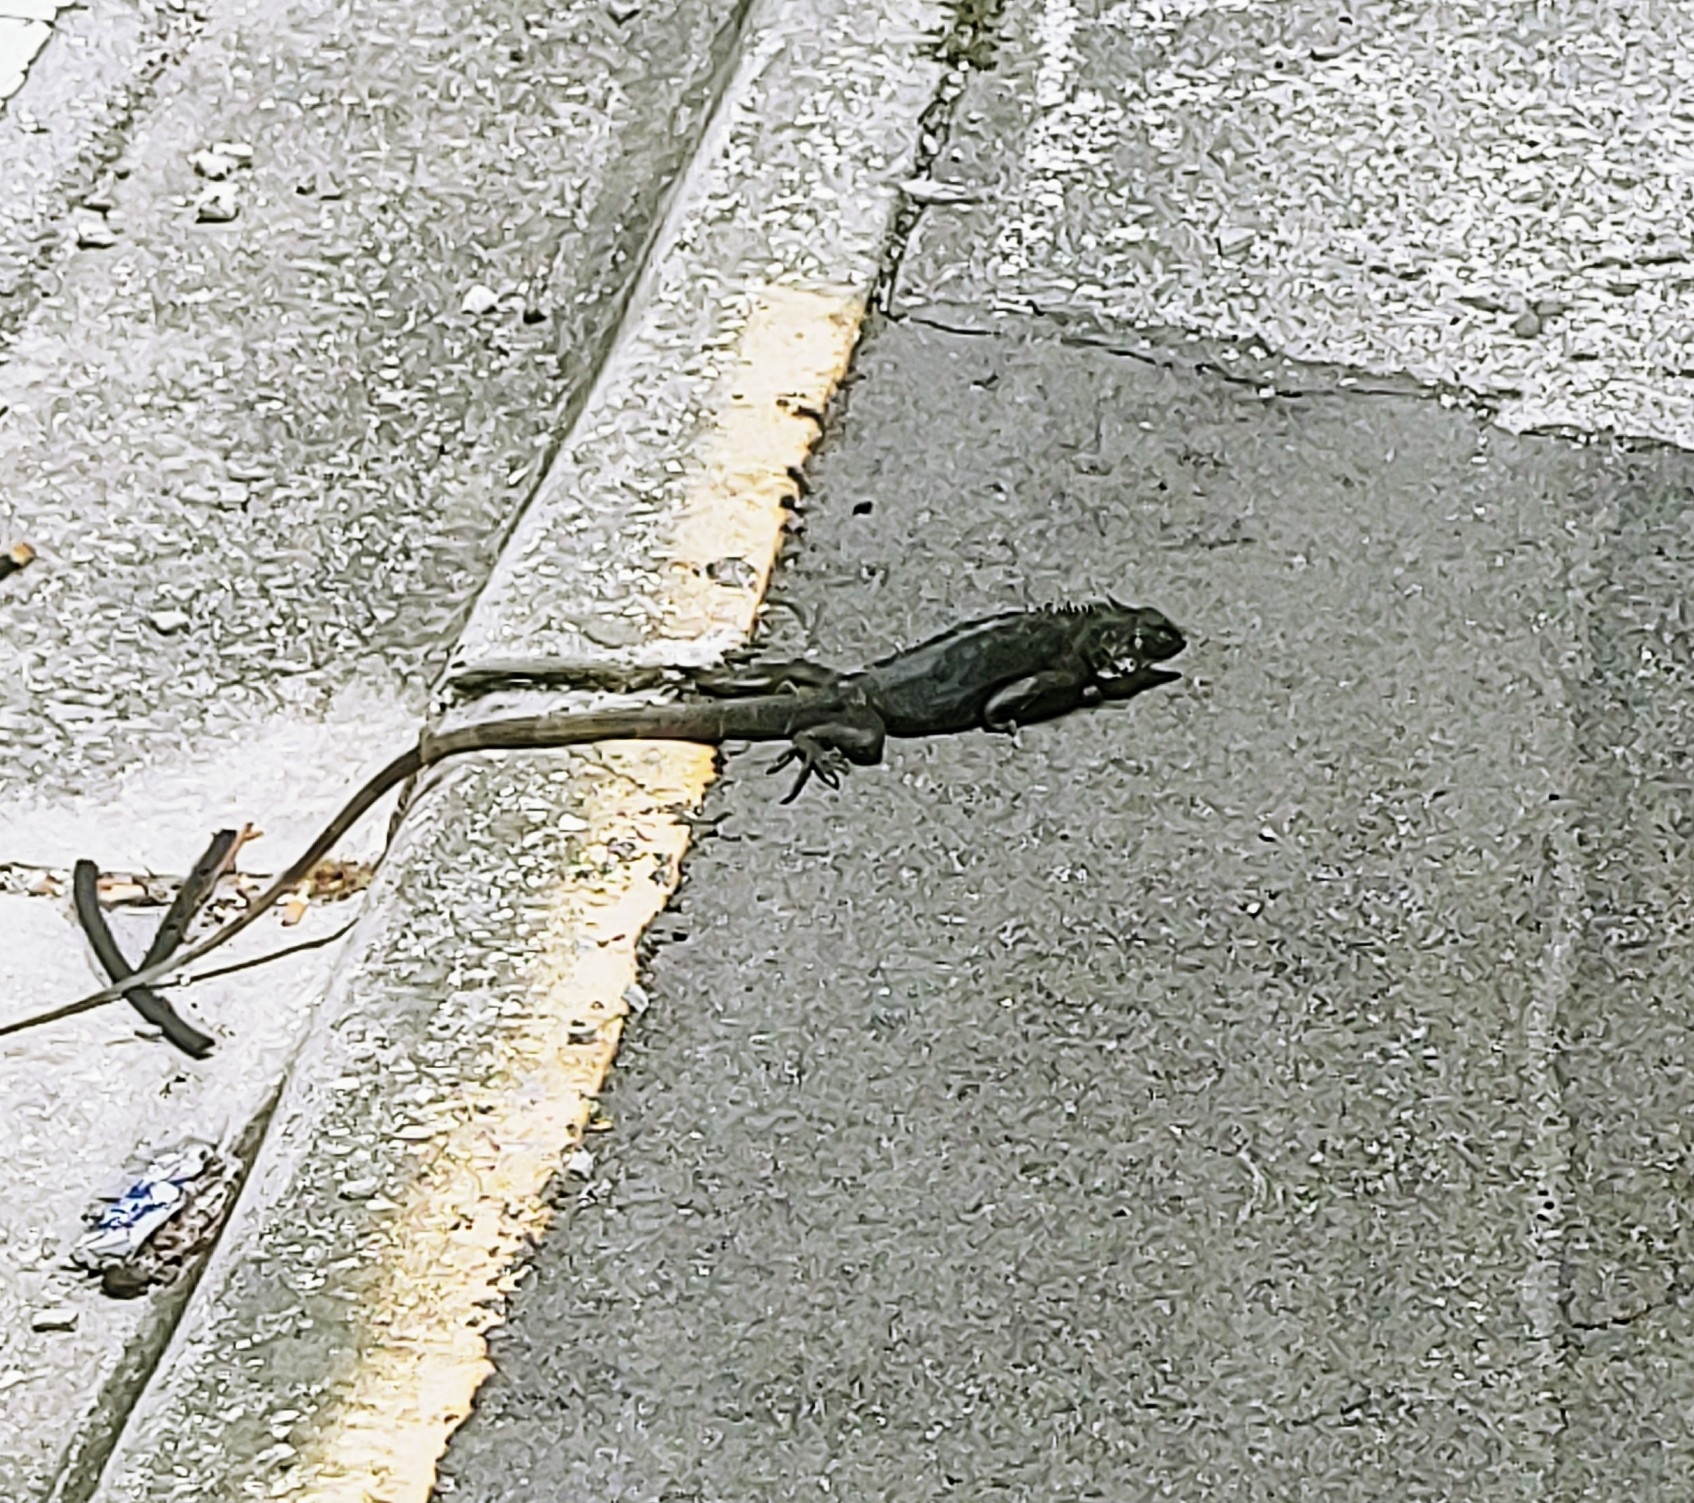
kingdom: Animalia
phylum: Chordata
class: Squamata
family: Iguanidae
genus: Iguana
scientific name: Iguana iguana
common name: Green iguana
